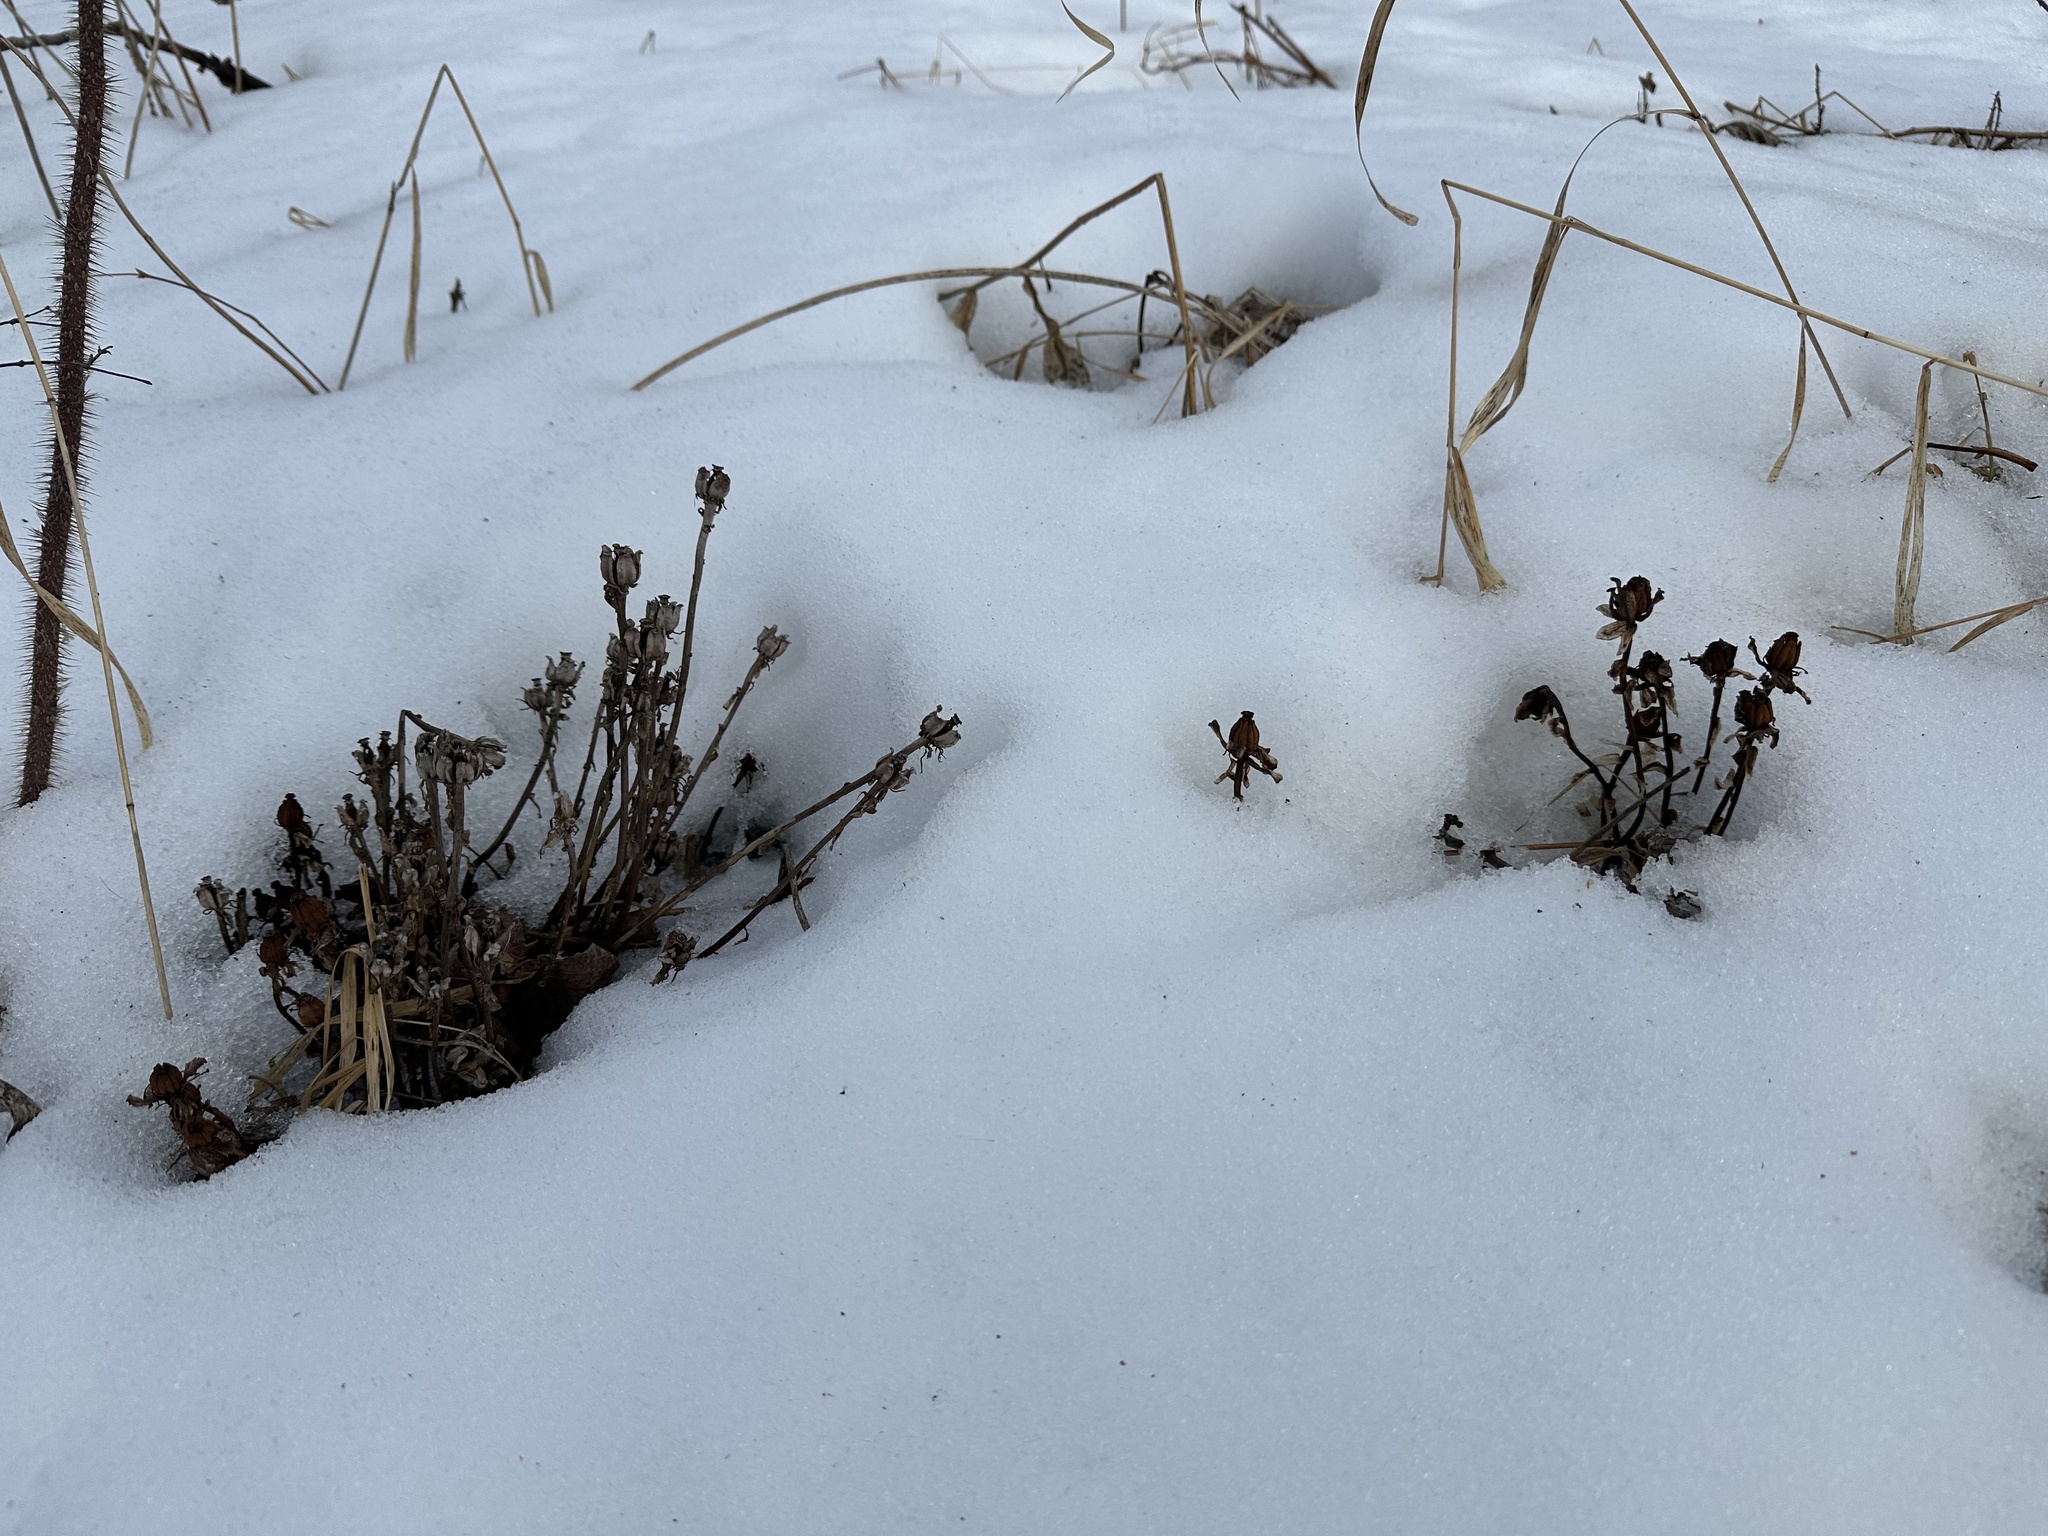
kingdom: Plantae
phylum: Tracheophyta
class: Magnoliopsida
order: Ericales
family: Ericaceae
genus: Monotropa
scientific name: Monotropa uniflora
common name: Convulsion root
